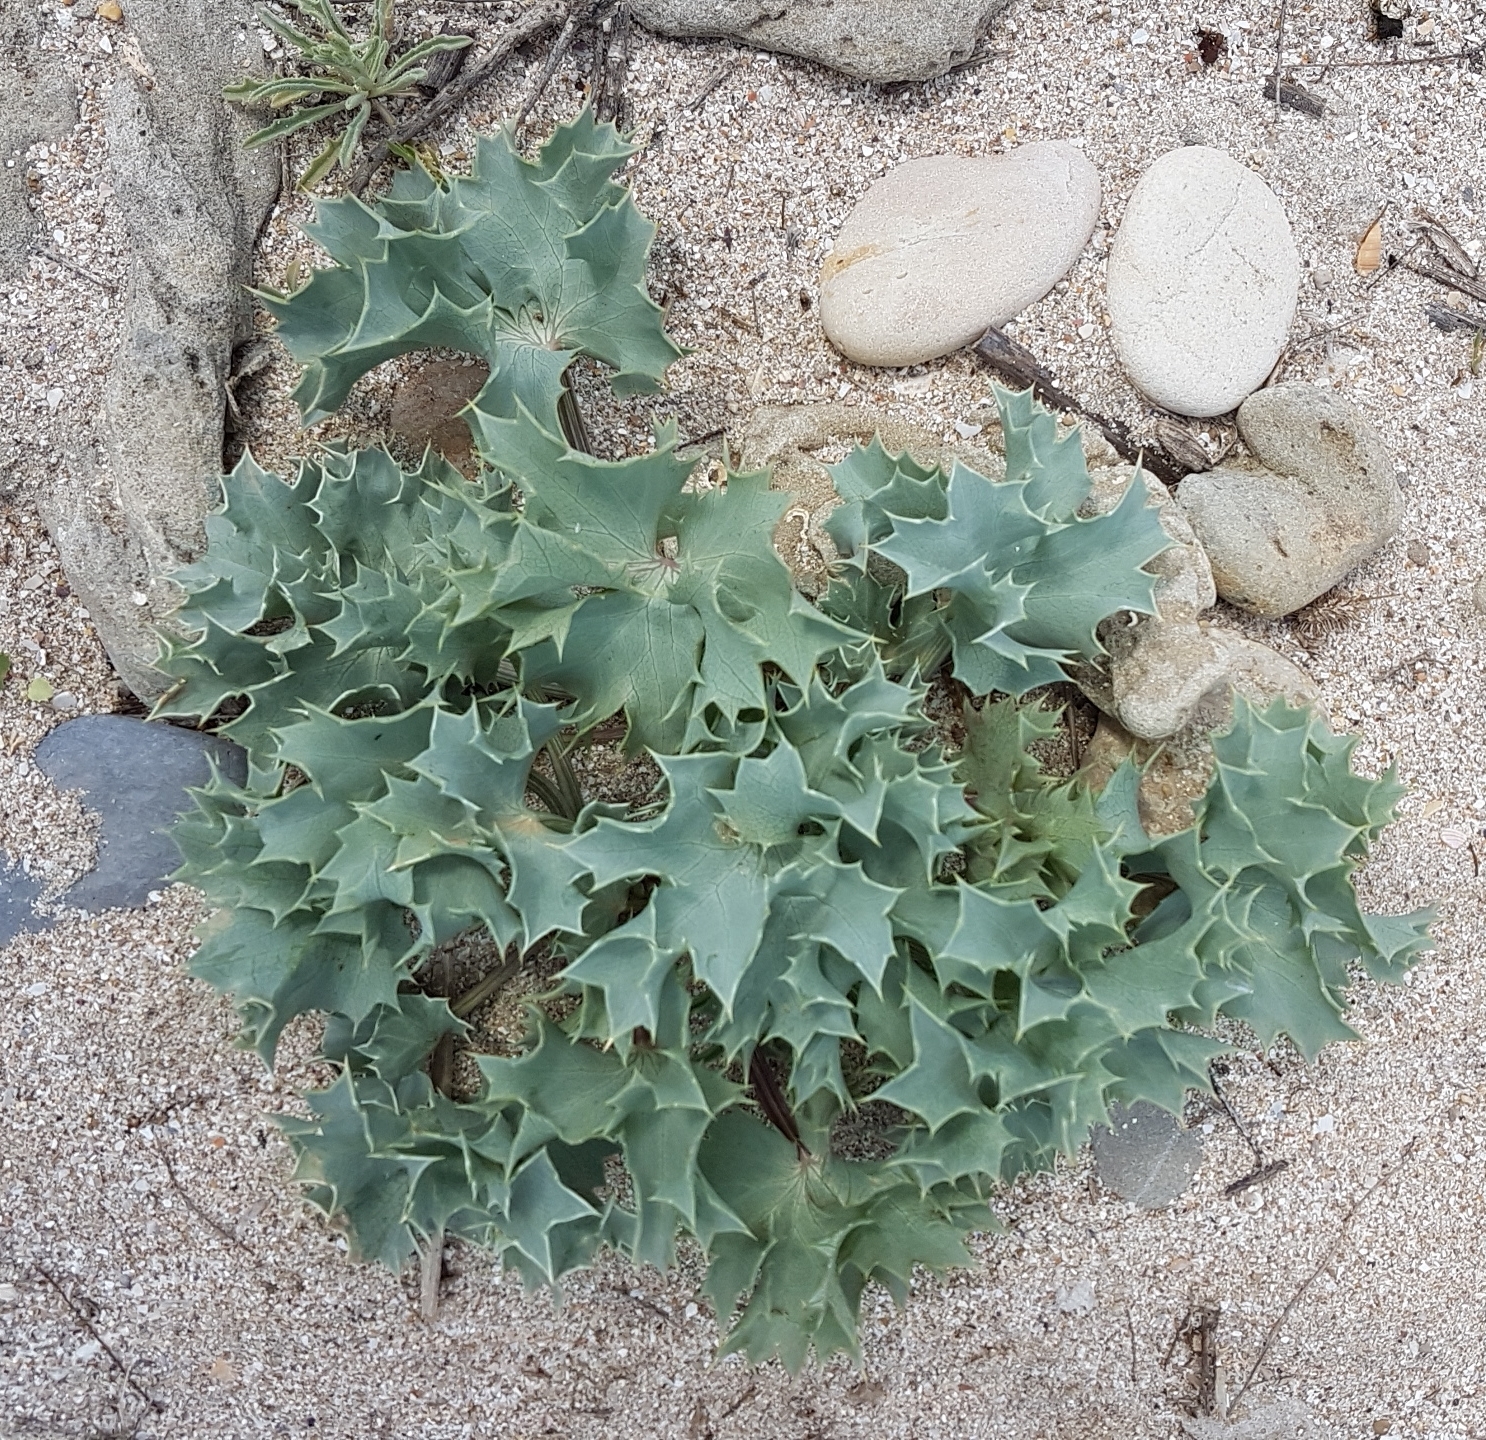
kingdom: Plantae
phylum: Tracheophyta
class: Magnoliopsida
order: Apiales
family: Apiaceae
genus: Eryngium
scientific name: Eryngium maritimum
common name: Sea-holly
